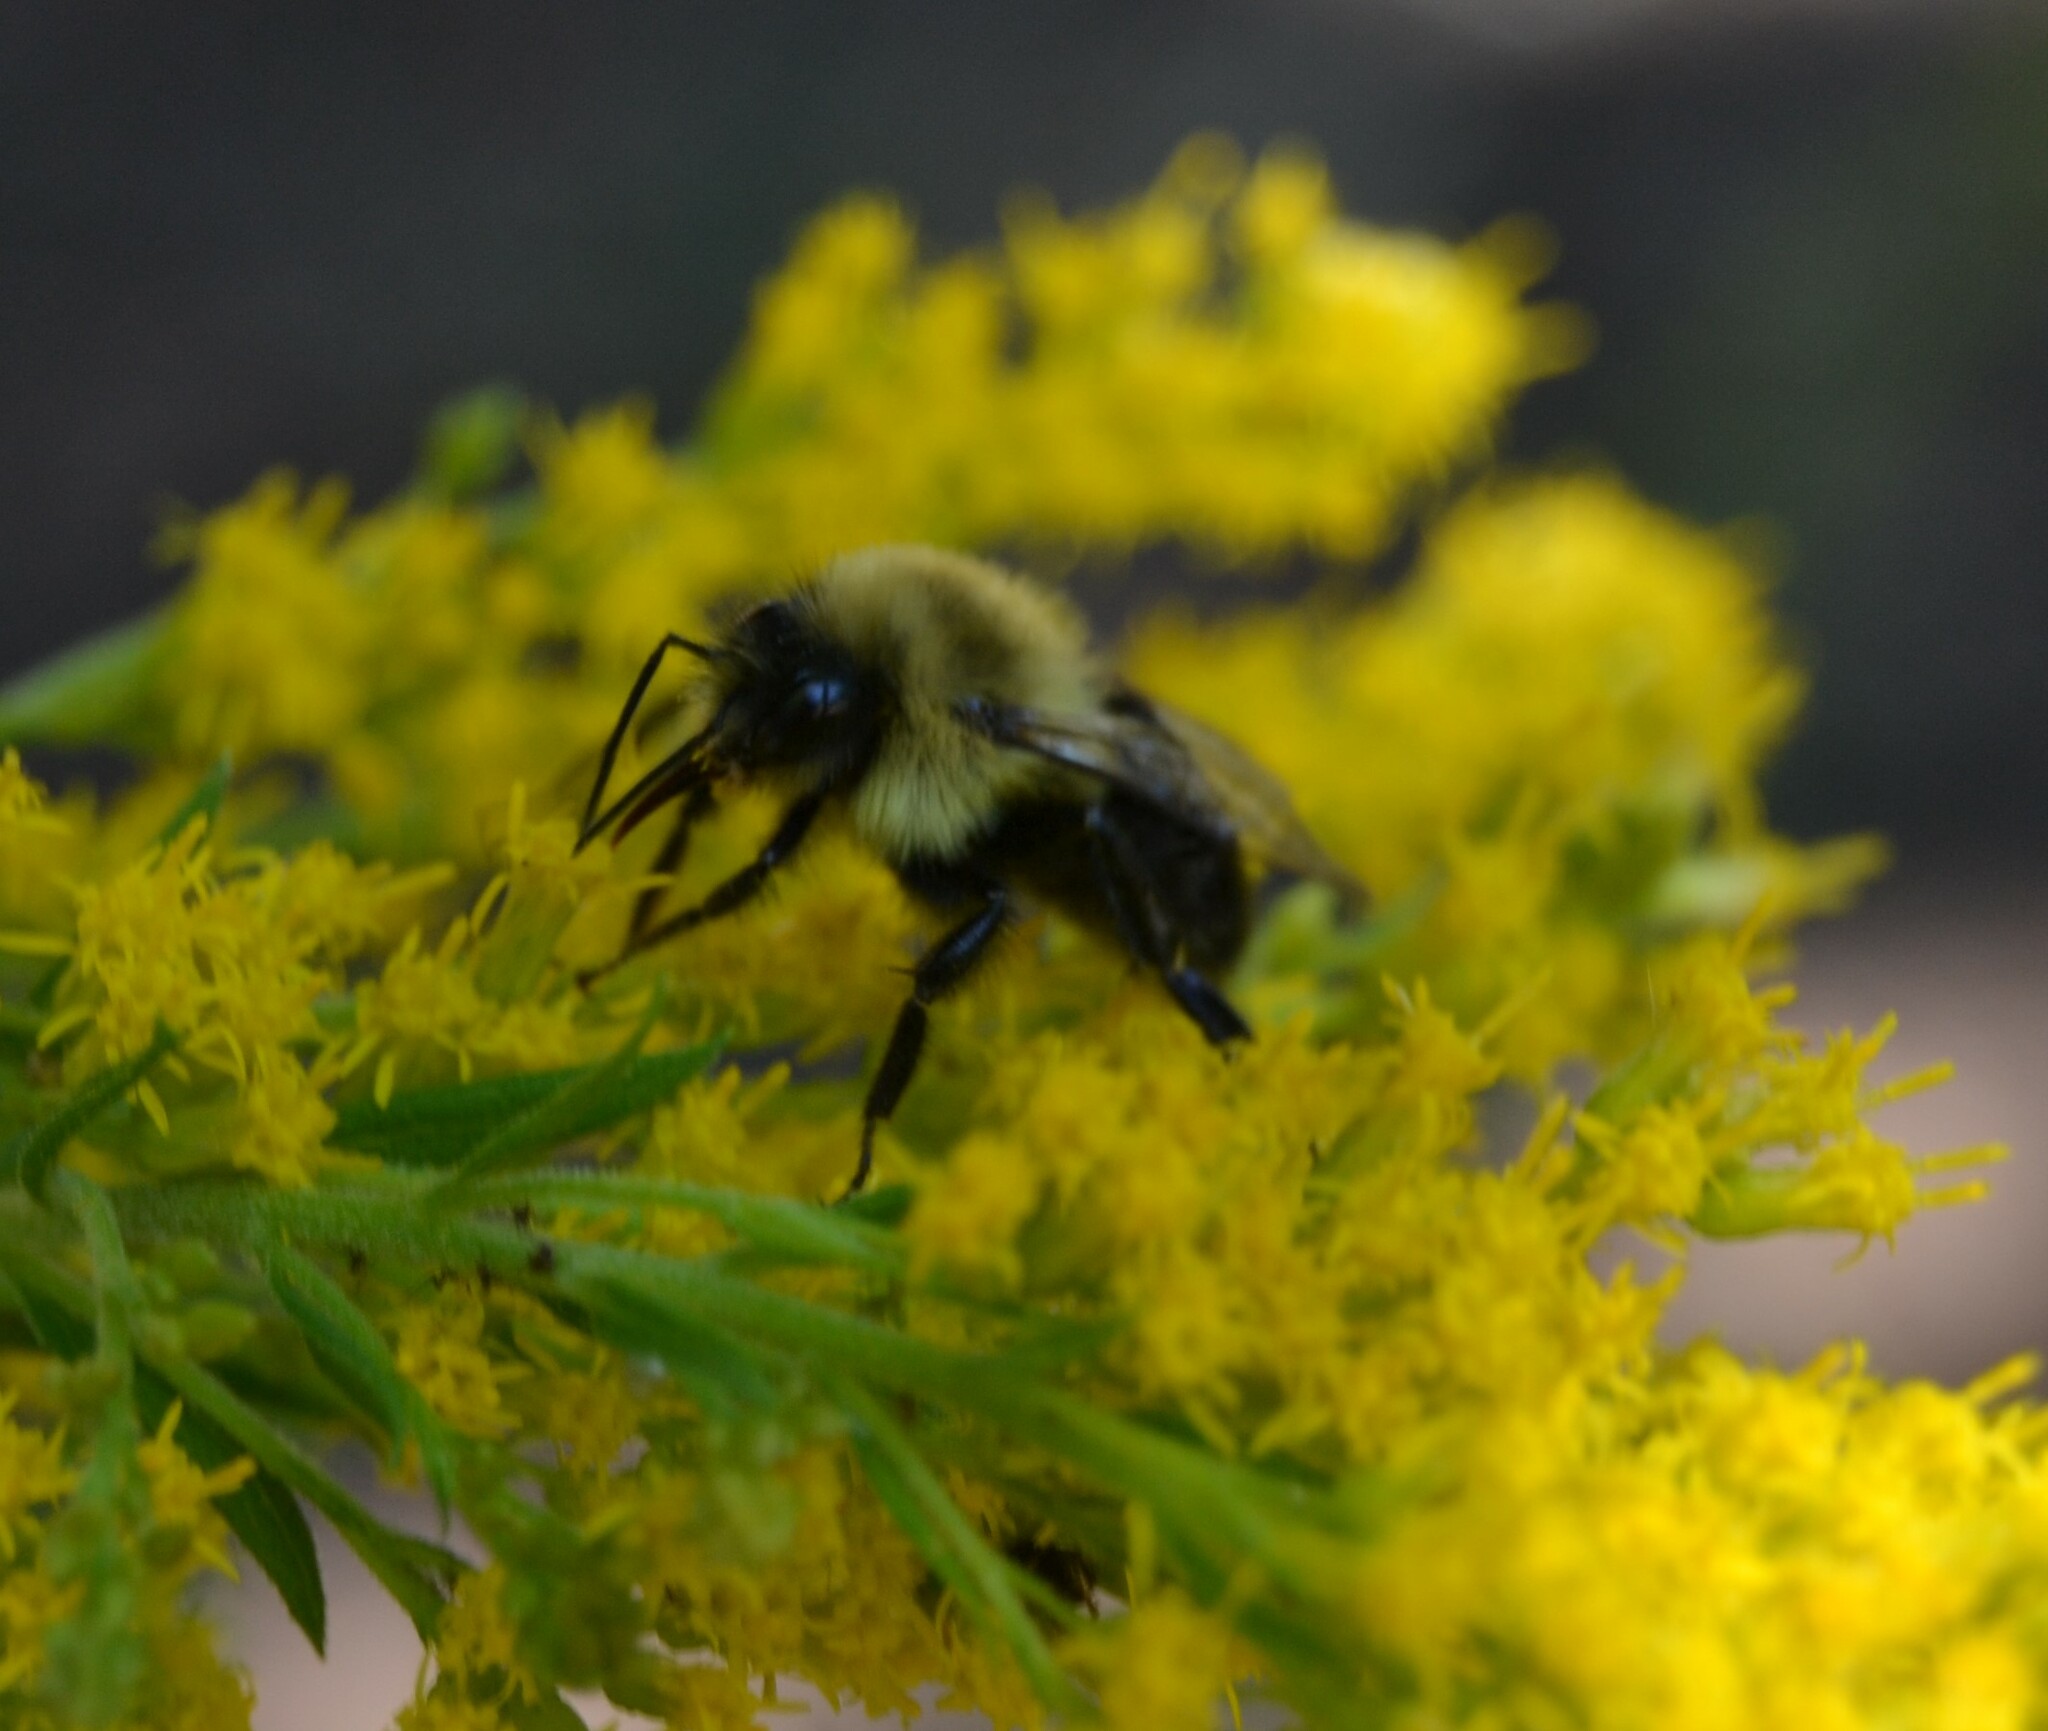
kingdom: Animalia
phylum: Arthropoda
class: Insecta
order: Hymenoptera
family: Apidae
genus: Bombus
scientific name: Bombus impatiens
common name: Common eastern bumble bee
